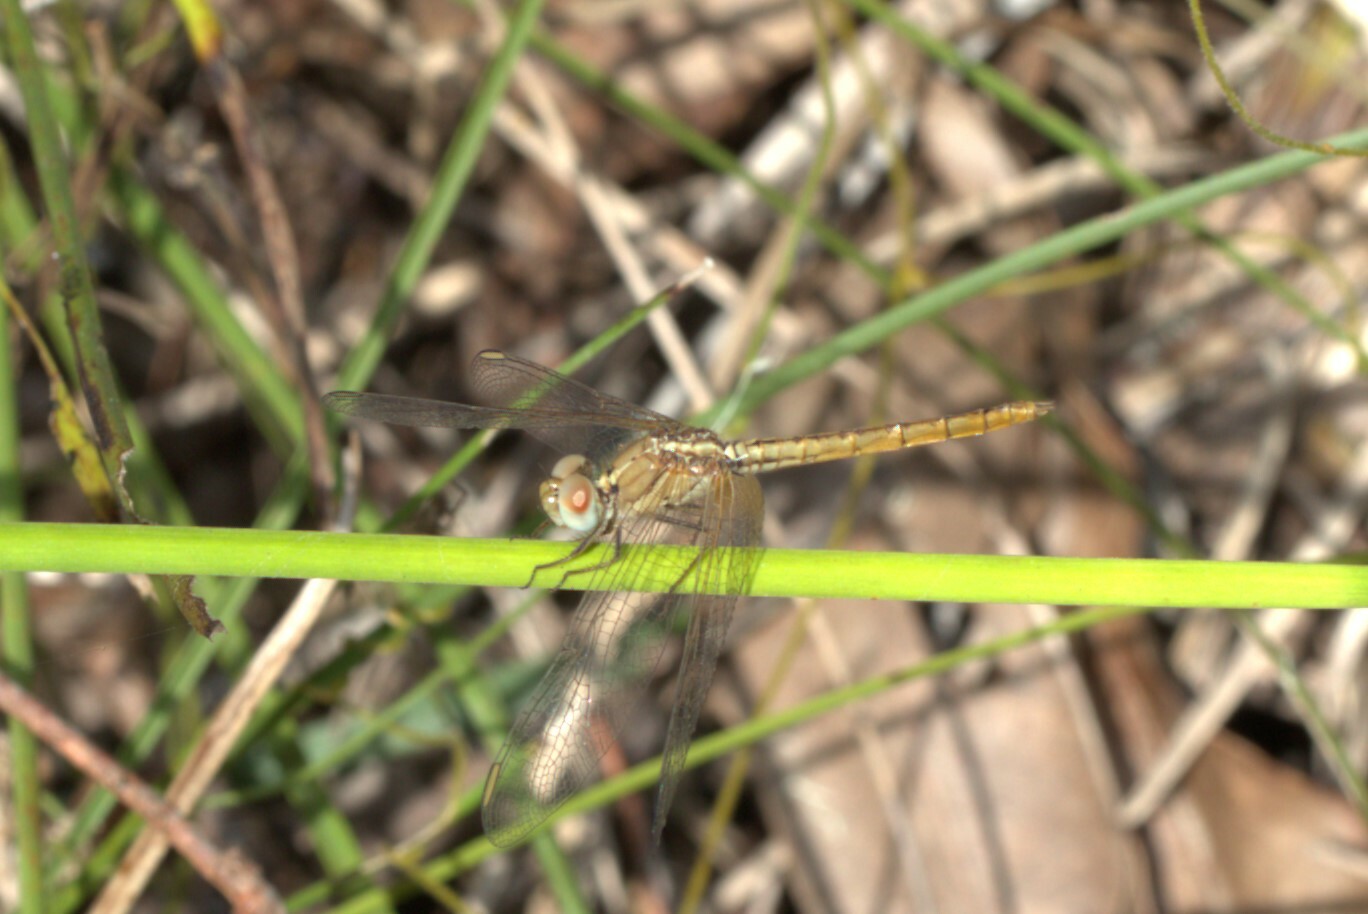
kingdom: Animalia
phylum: Arthropoda
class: Insecta
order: Odonata
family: Libellulidae
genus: Diplacodes
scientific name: Diplacodes haematodes
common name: Scarlet percher
